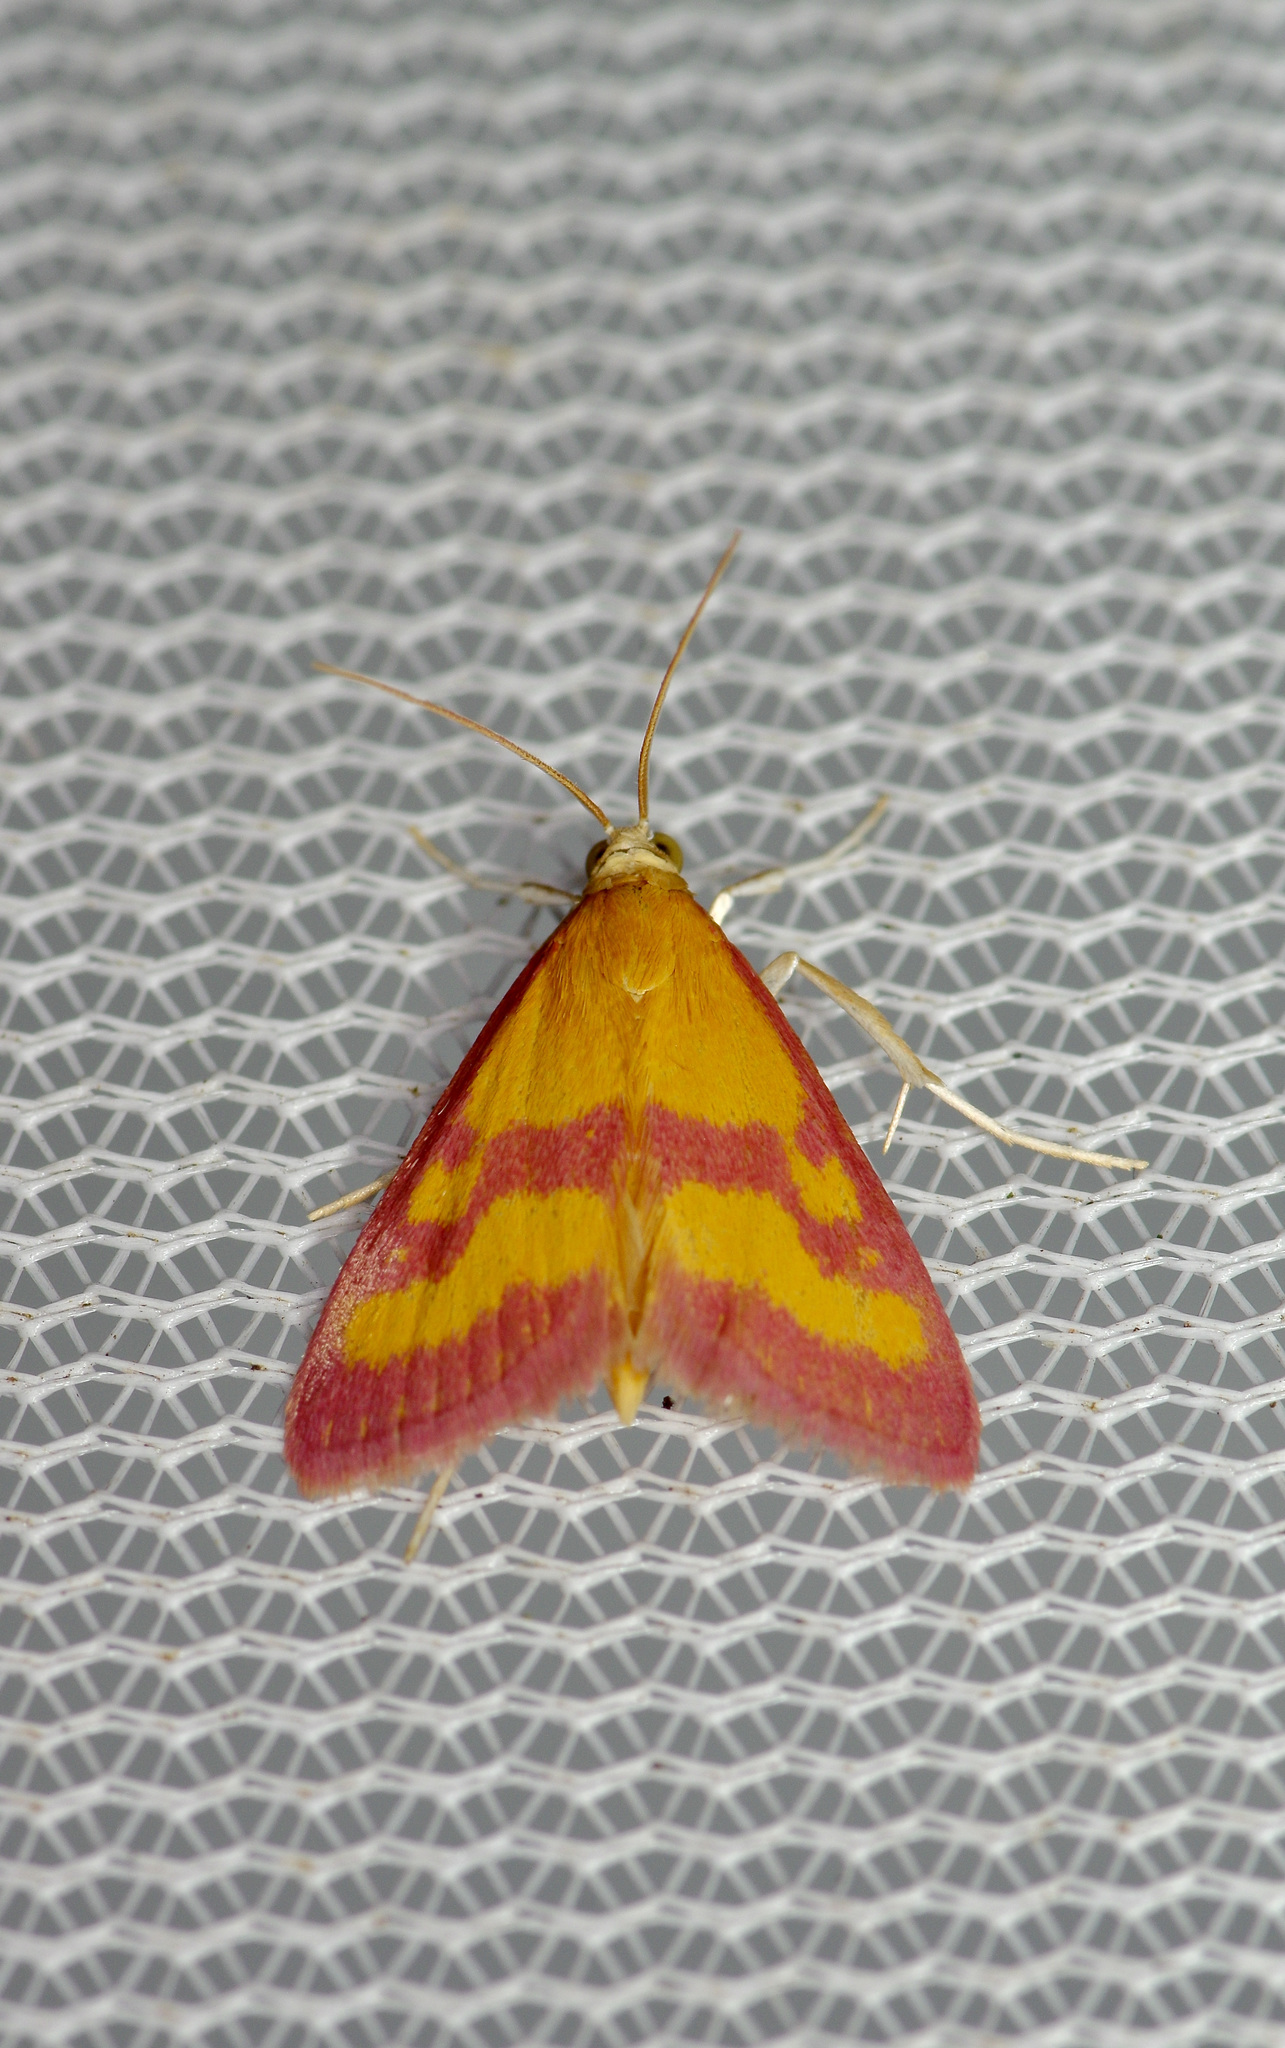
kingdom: Animalia
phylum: Arthropoda
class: Insecta
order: Lepidoptera
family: Crambidae
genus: Pyrausta
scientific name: Pyrausta laticlavia
